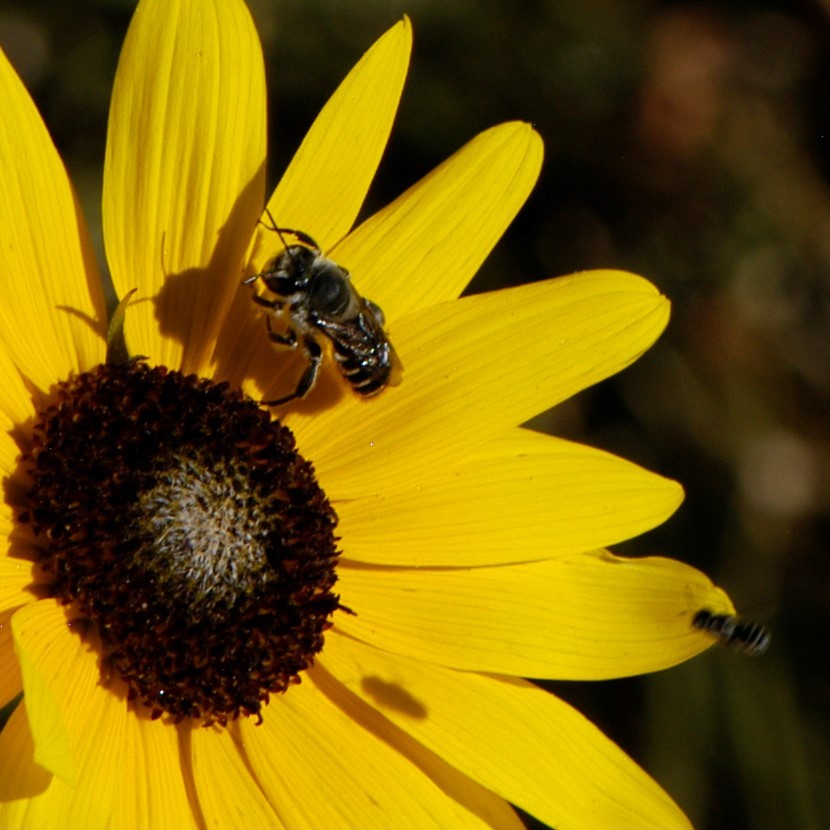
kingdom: Animalia
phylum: Arthropoda
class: Insecta
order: Hymenoptera
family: Megachilidae
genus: Lithurgopsis
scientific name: Lithurgopsis apicalis
